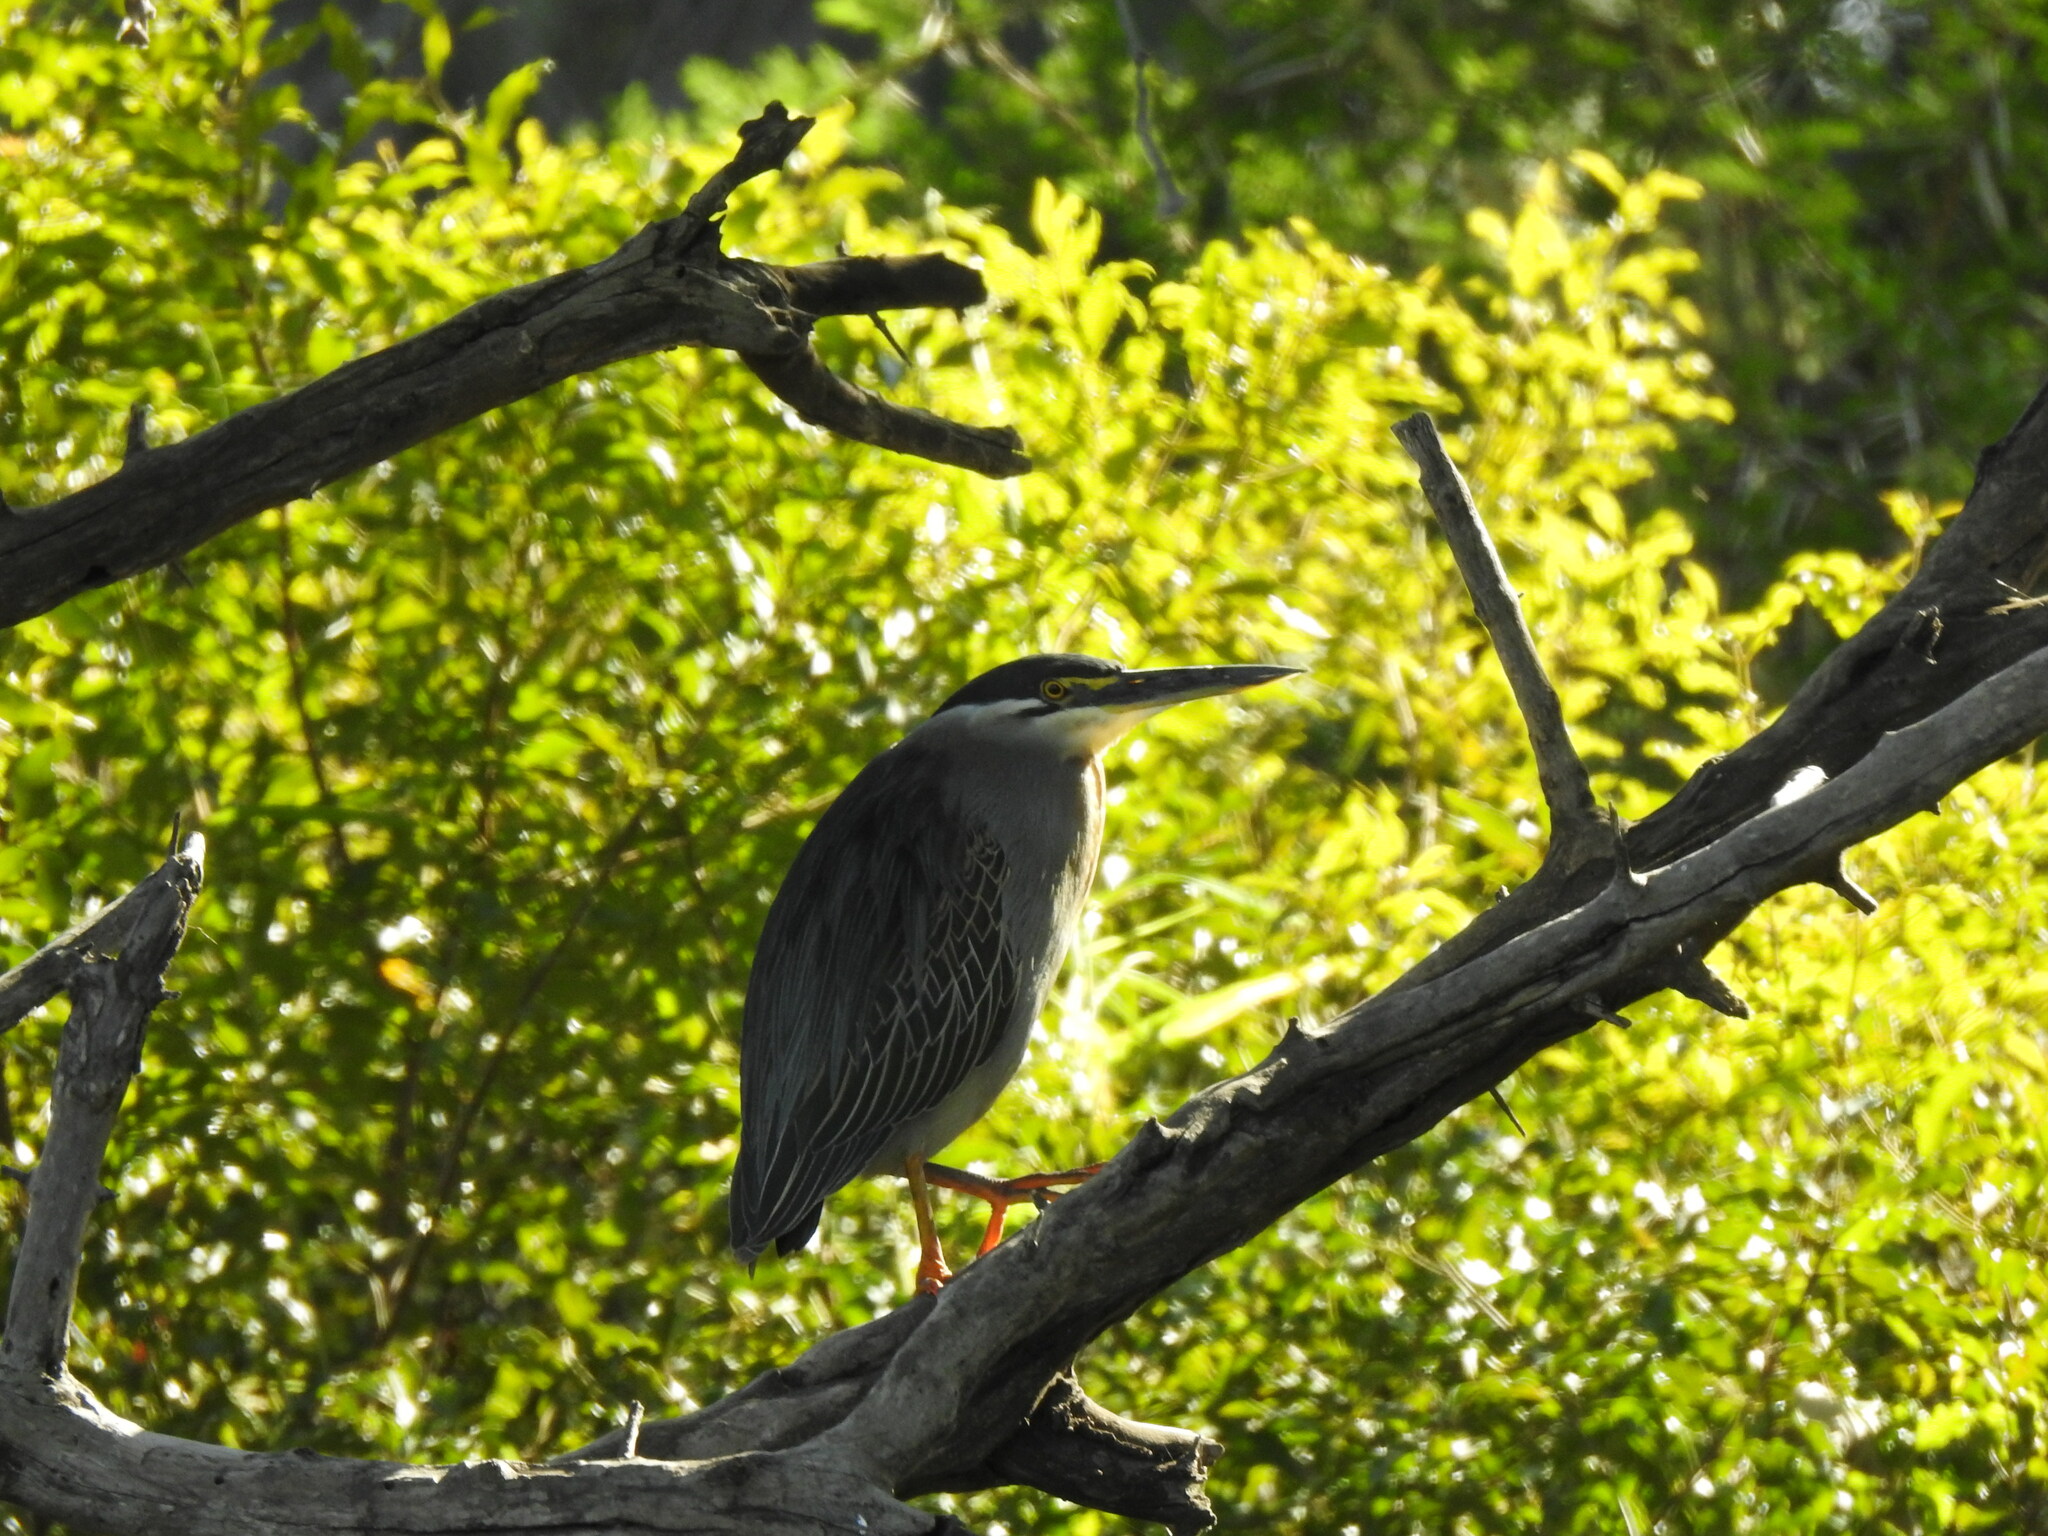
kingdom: Animalia
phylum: Chordata
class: Aves
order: Pelecaniformes
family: Ardeidae
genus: Butorides
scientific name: Butorides striata
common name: Striated heron
